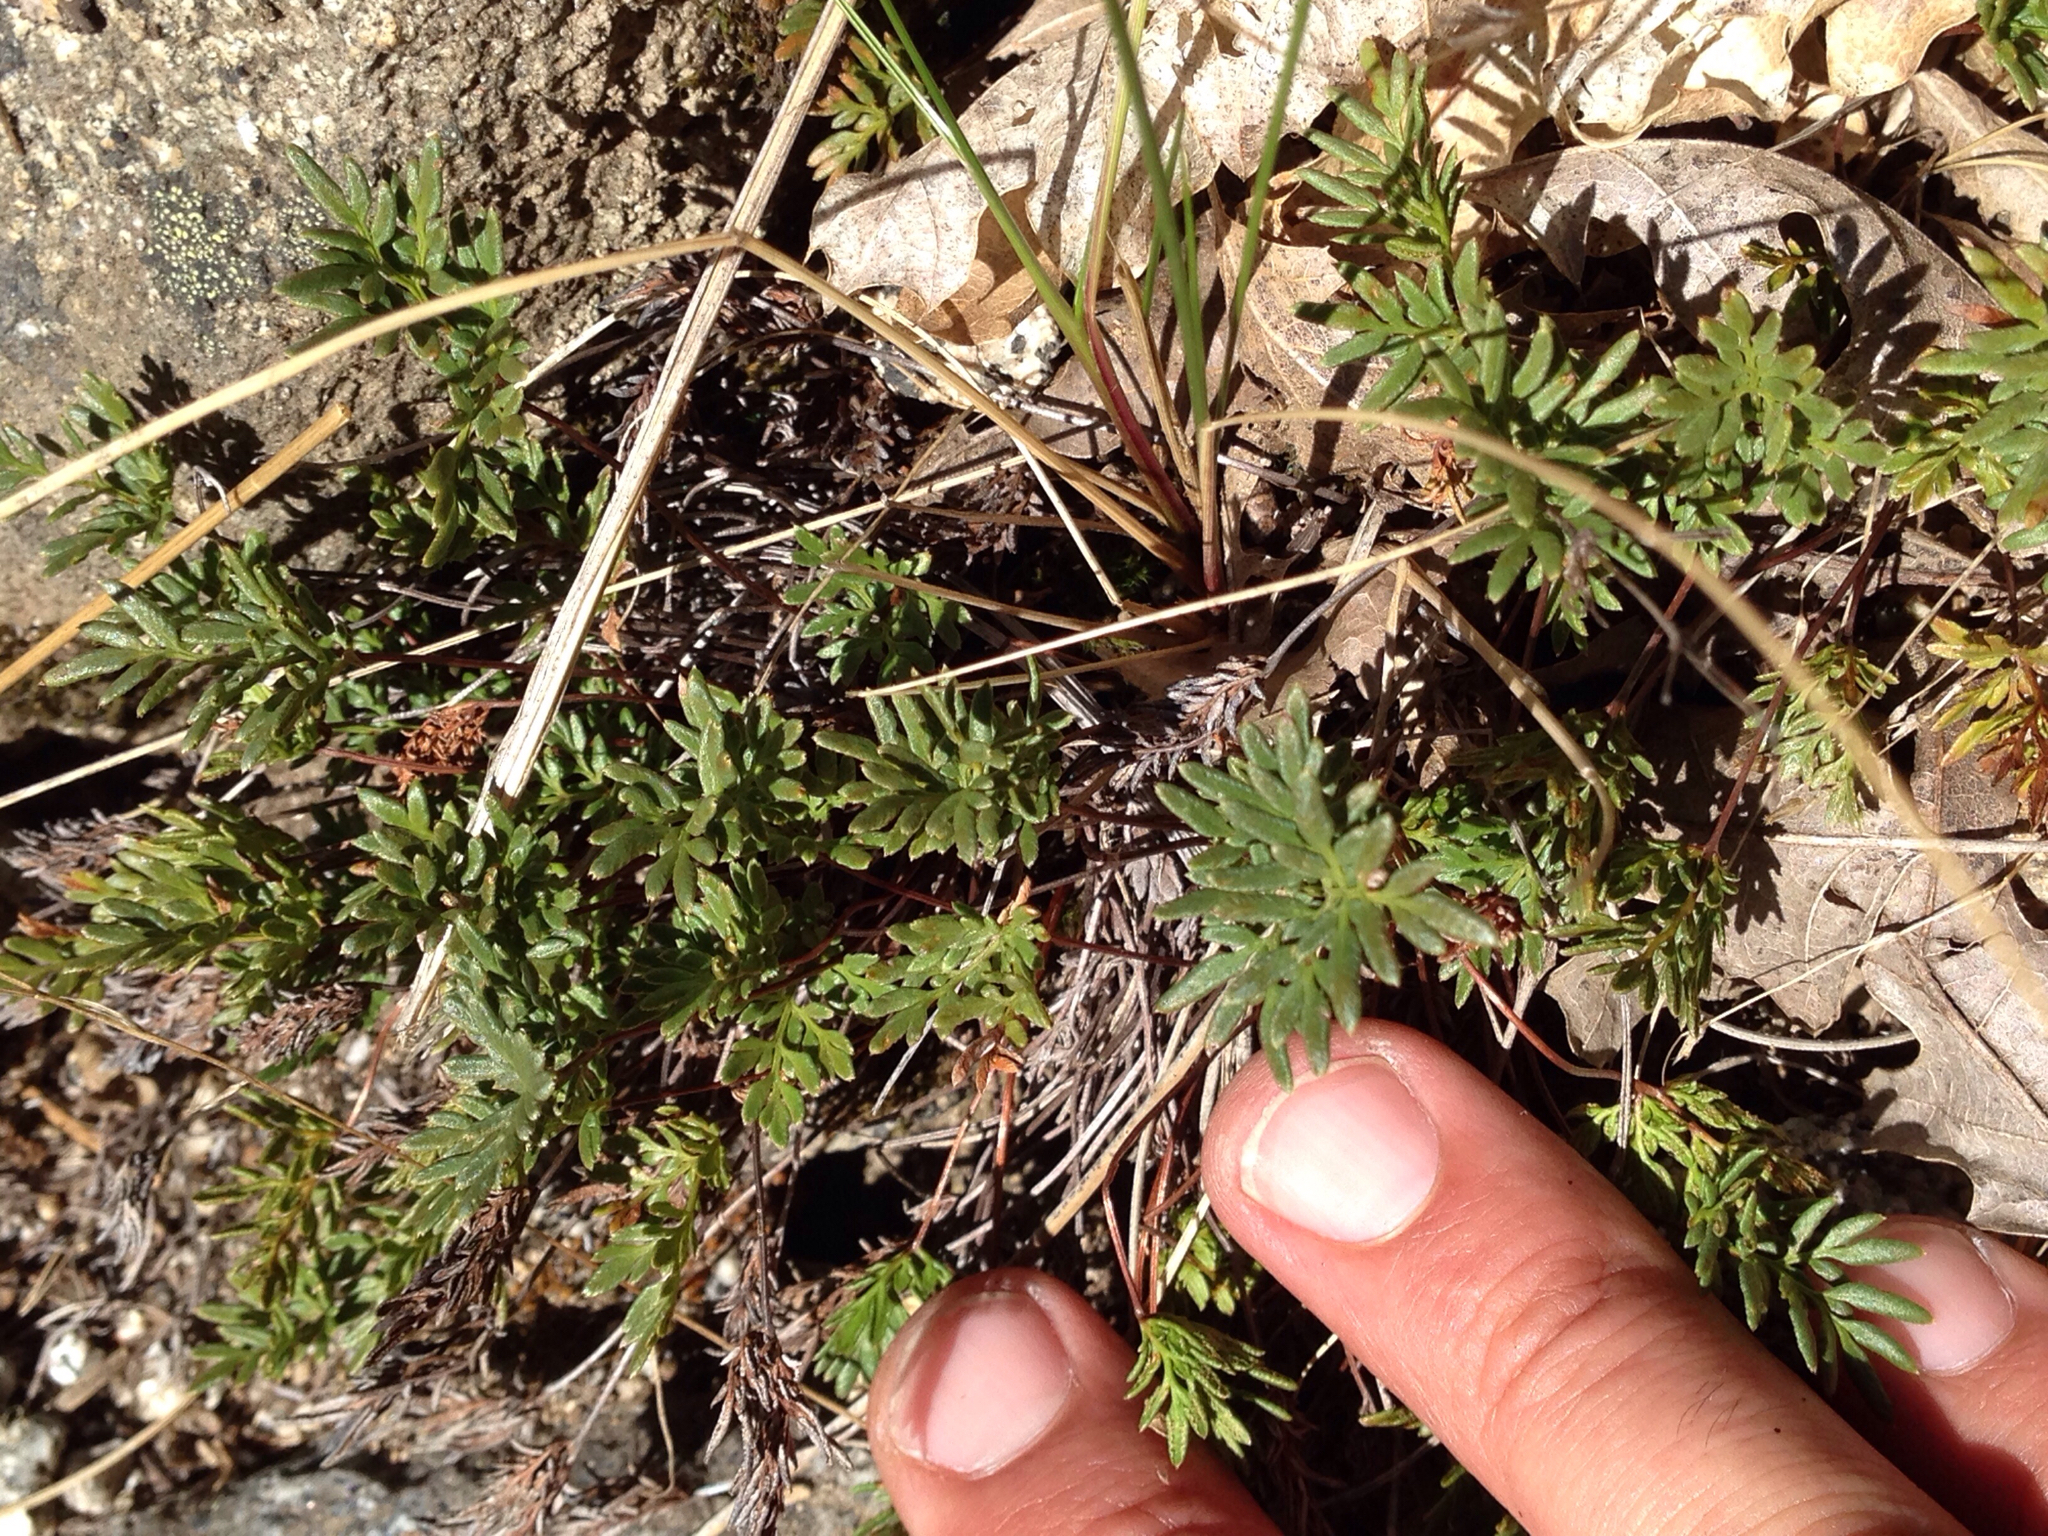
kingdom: Plantae
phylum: Tracheophyta
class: Polypodiopsida
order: Polypodiales
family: Pteridaceae
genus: Aspidotis
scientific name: Aspidotis densa
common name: Indian's dream
